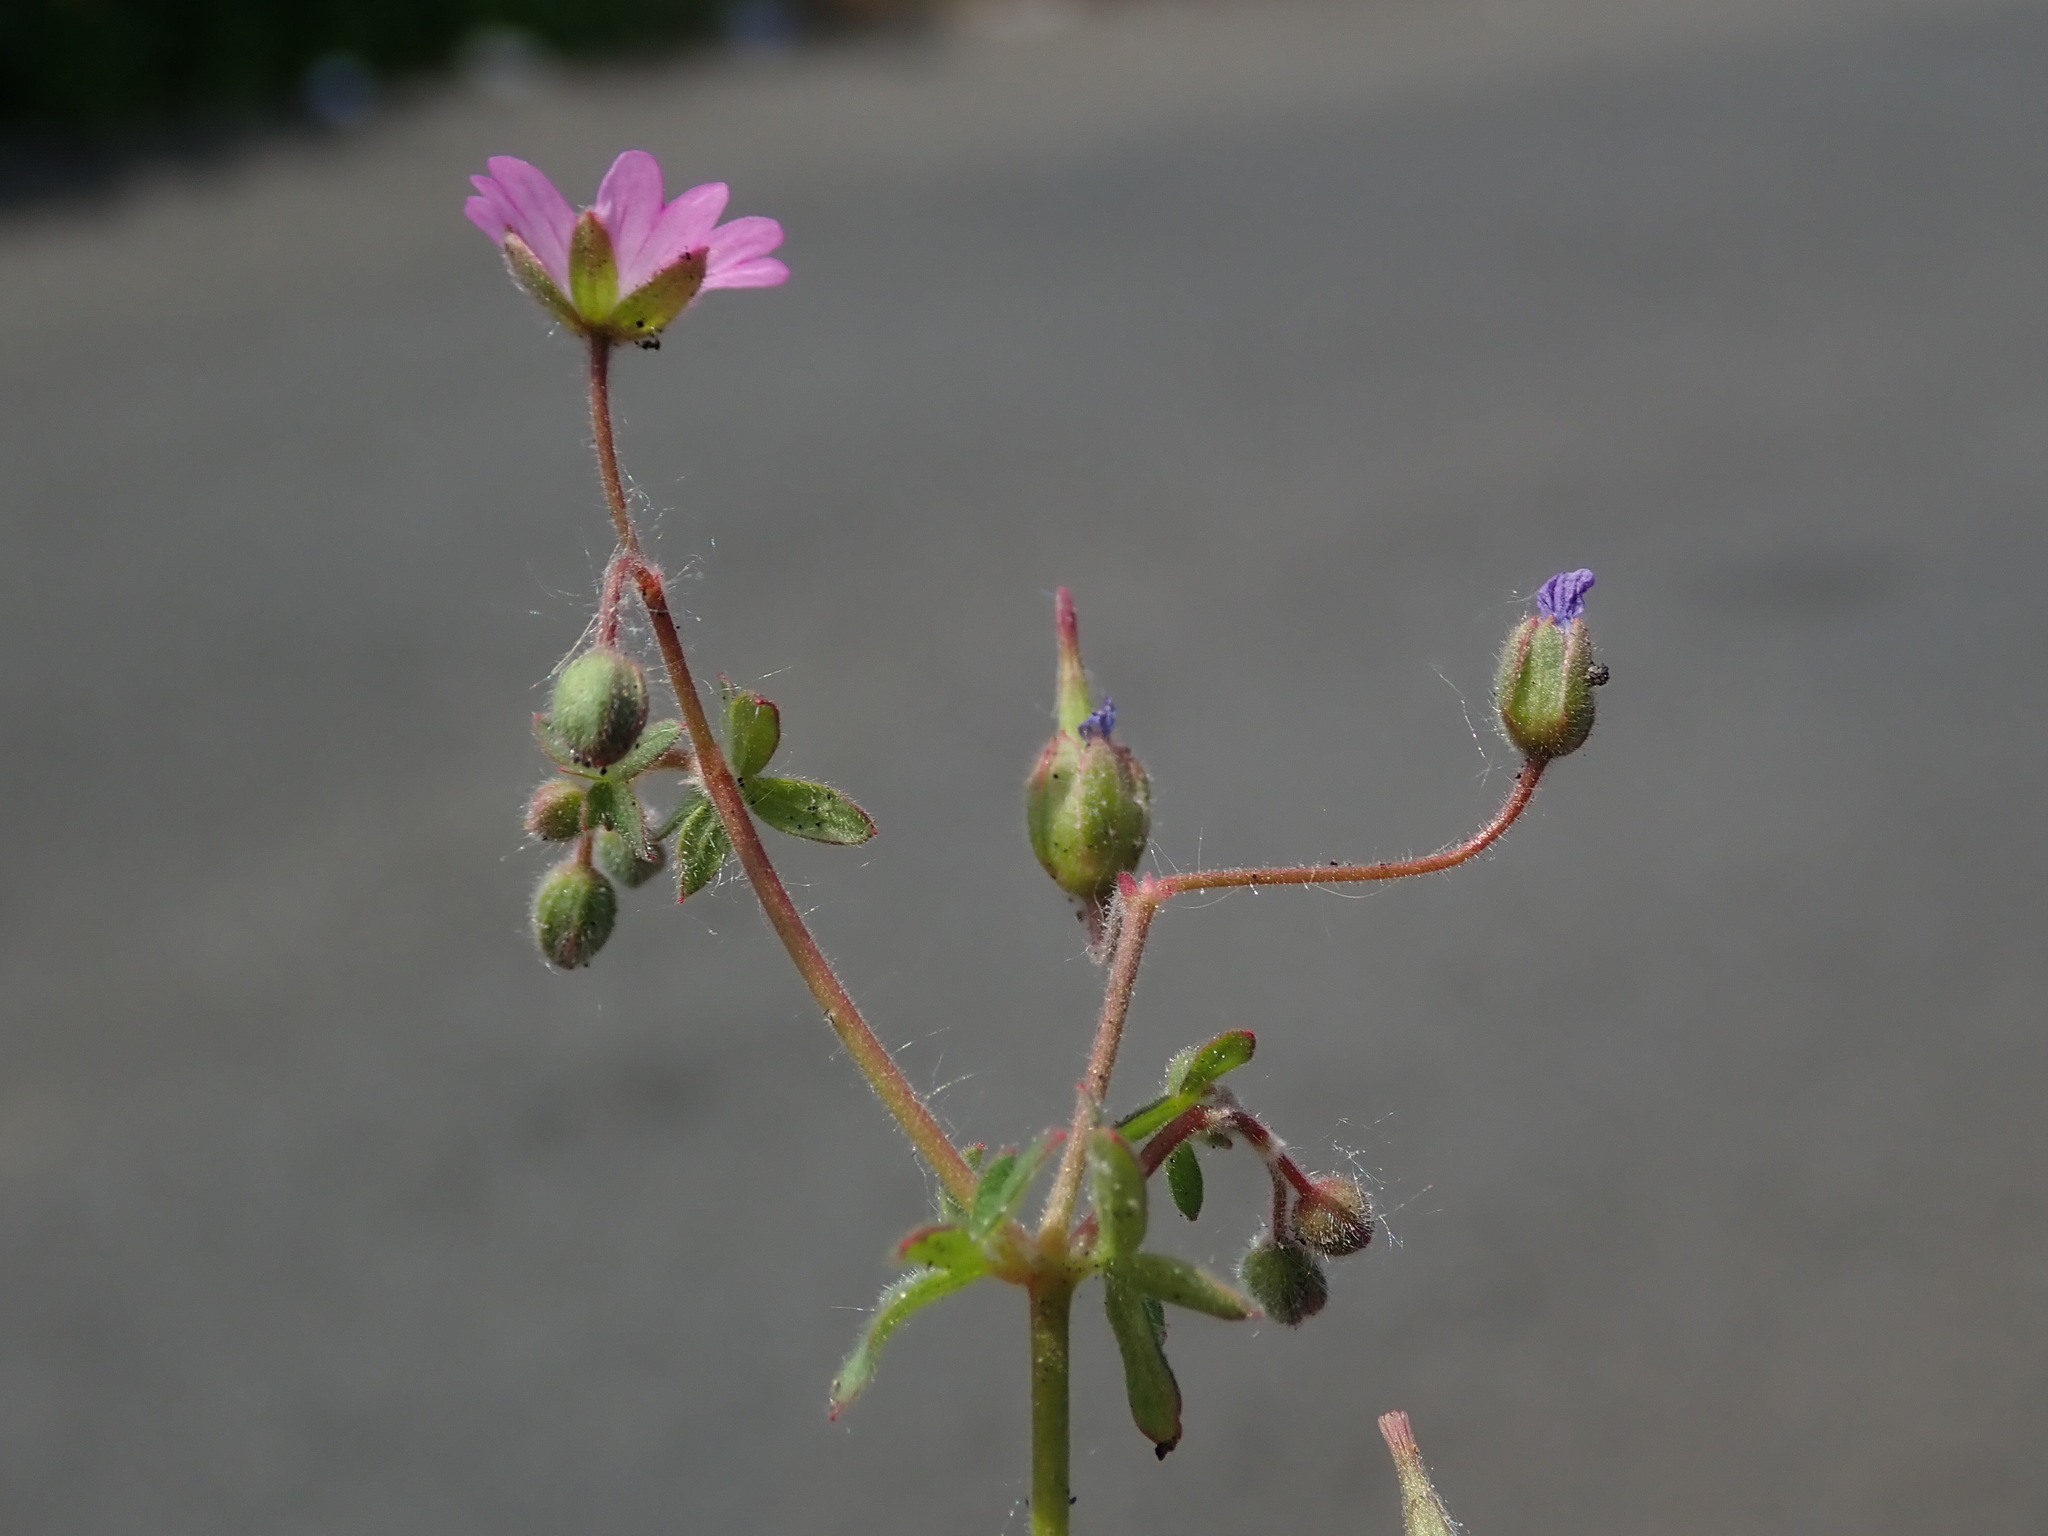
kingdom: Plantae
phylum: Tracheophyta
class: Magnoliopsida
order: Geraniales
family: Geraniaceae
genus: Geranium
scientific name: Geranium molle
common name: Dove's-foot crane's-bill
